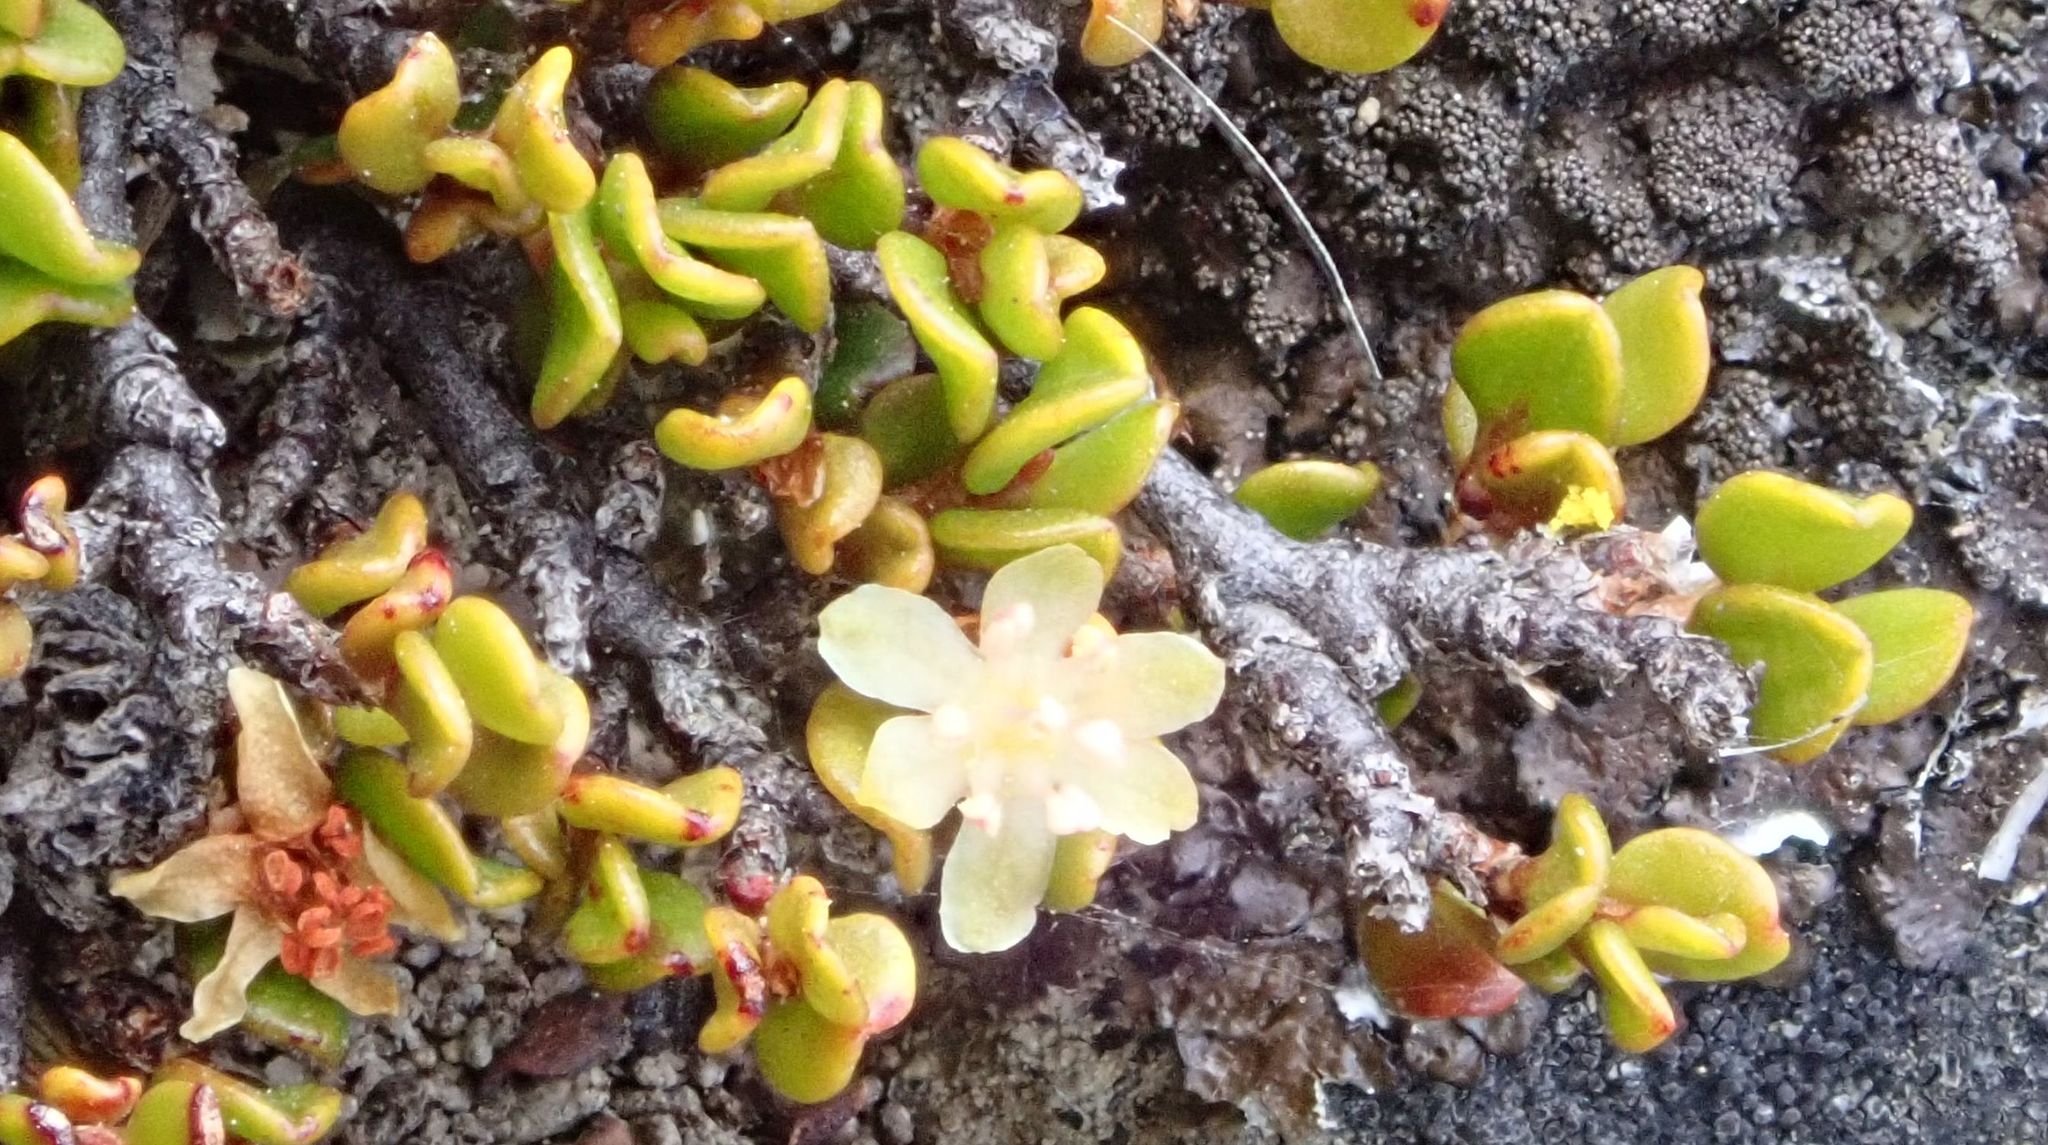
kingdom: Plantae
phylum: Tracheophyta
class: Magnoliopsida
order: Caryophyllales
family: Polygonaceae
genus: Muehlenbeckia
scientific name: Muehlenbeckia axillaris
